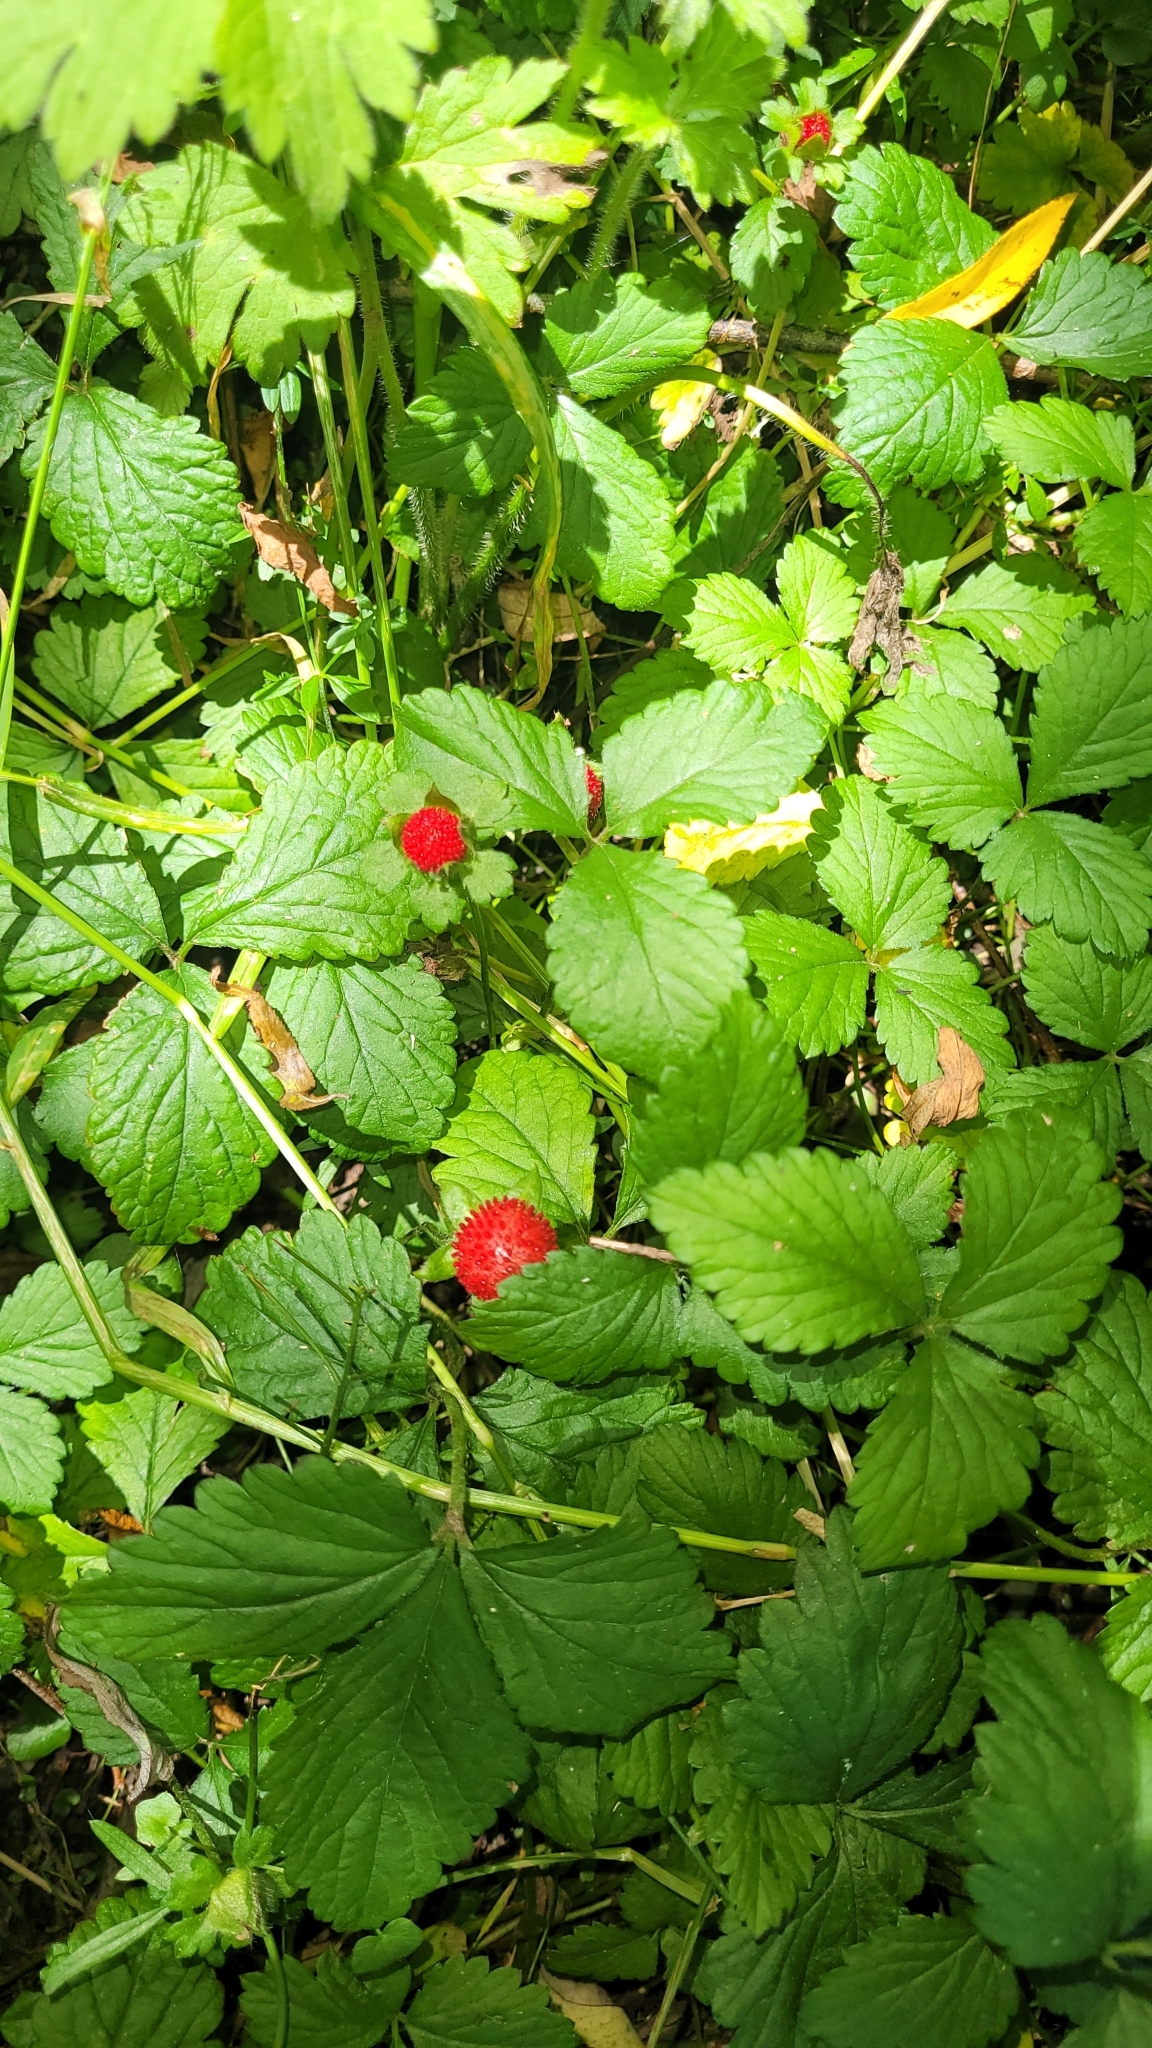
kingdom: Plantae
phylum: Tracheophyta
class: Magnoliopsida
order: Rosales
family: Rosaceae
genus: Potentilla
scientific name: Potentilla indica
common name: Yellow-flowered strawberry
